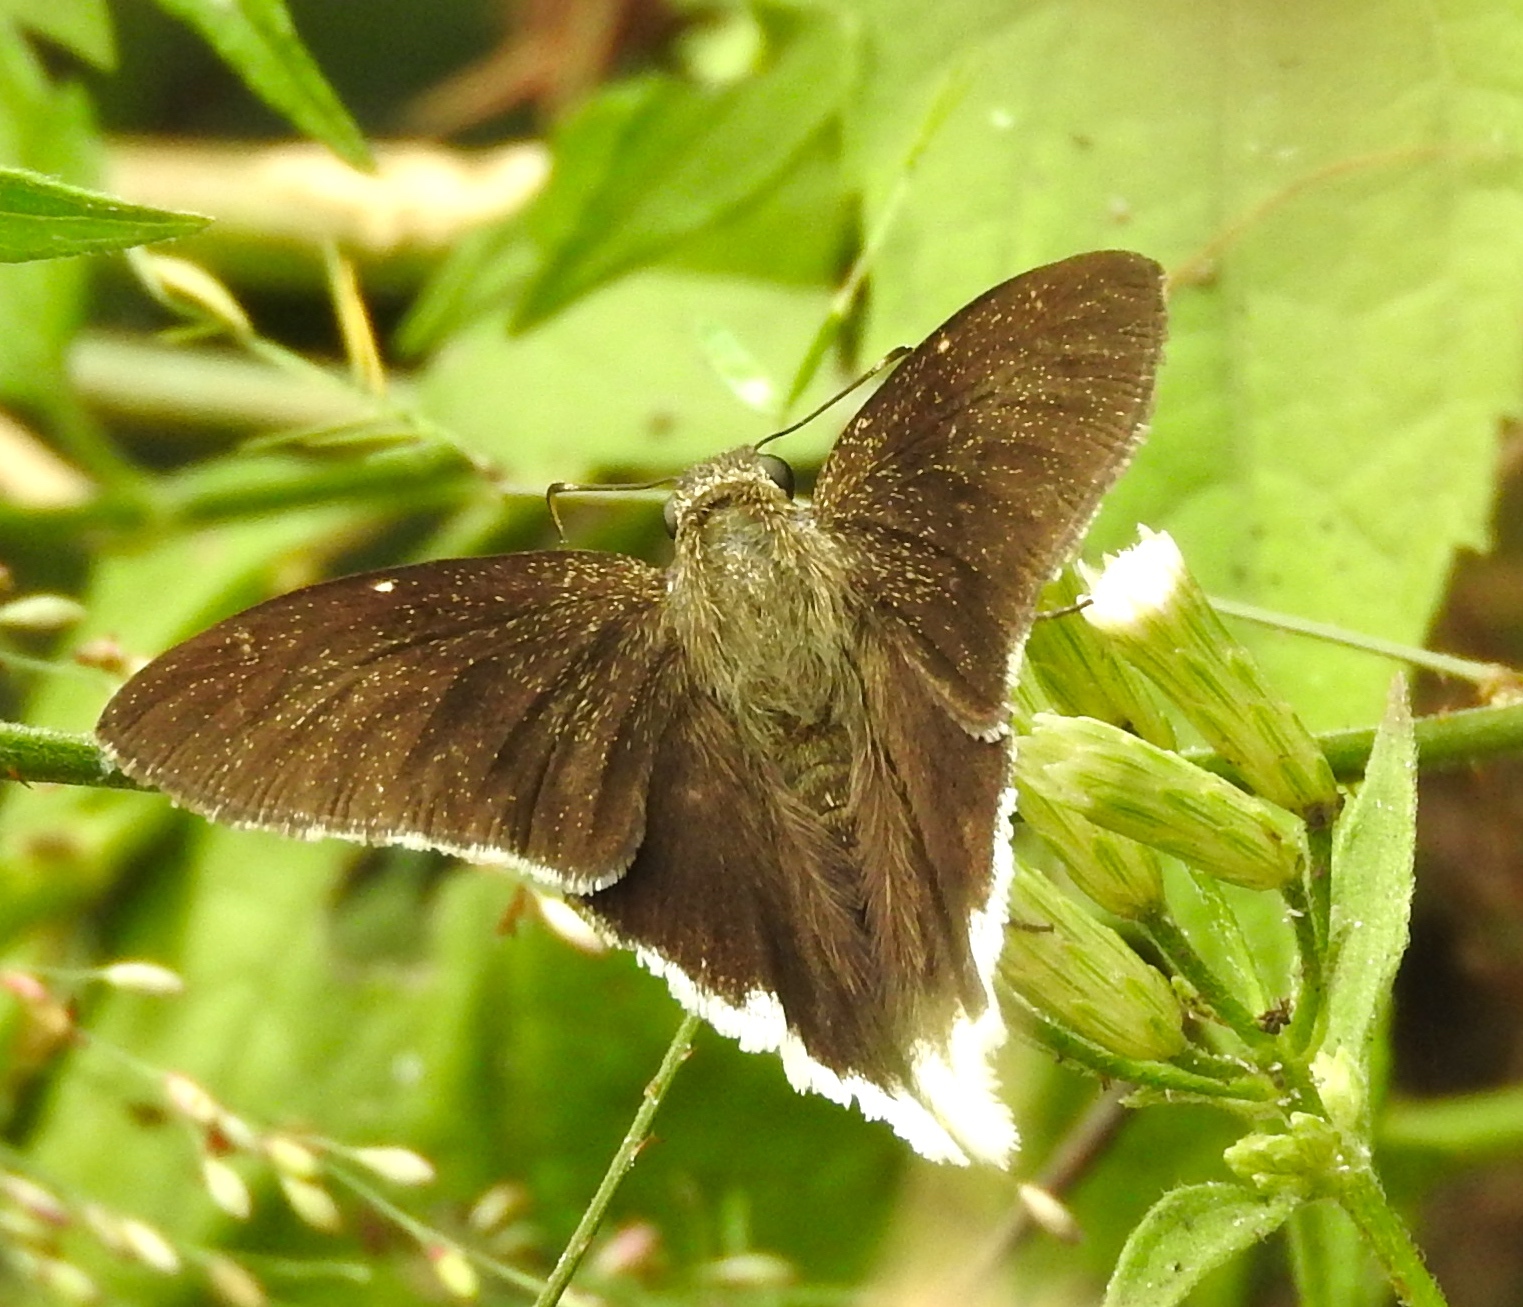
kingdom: Animalia
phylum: Arthropoda
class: Insecta
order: Lepidoptera
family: Hesperiidae
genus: Achalarus
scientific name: Achalarus
